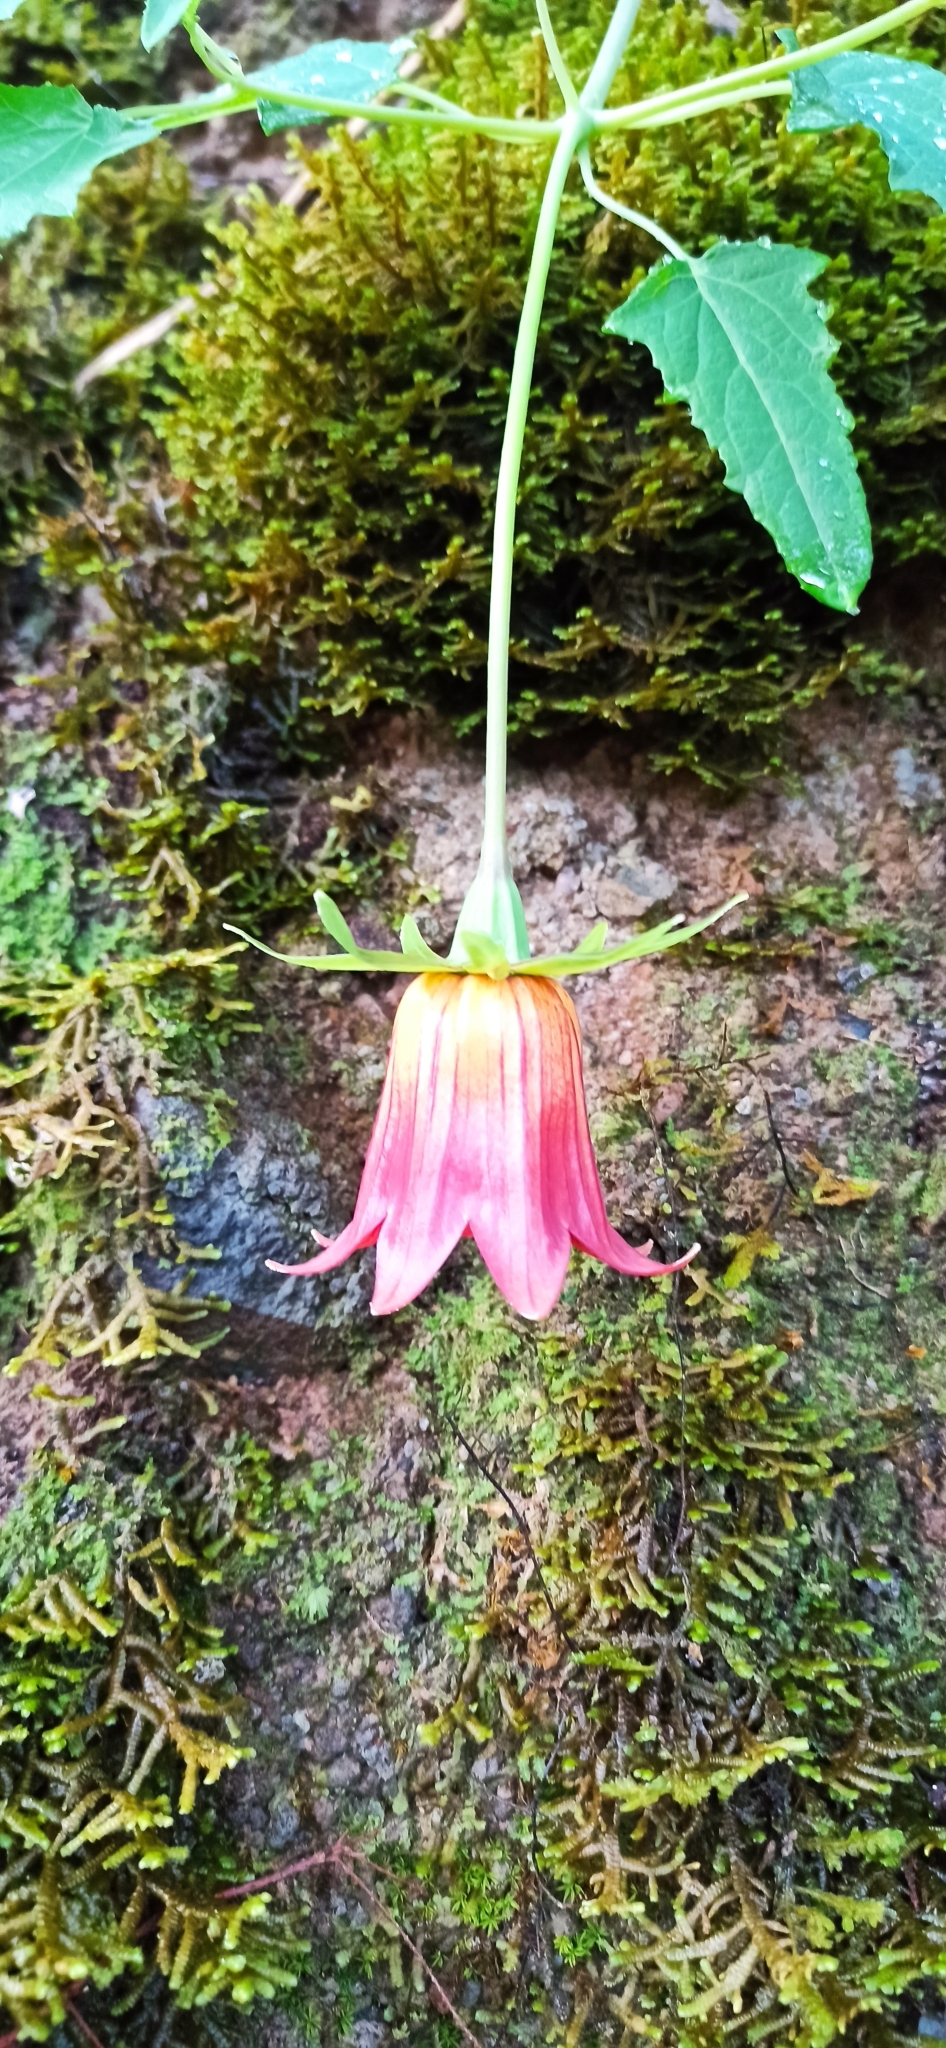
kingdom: Plantae
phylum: Tracheophyta
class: Magnoliopsida
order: Asterales
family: Campanulaceae
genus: Canarina
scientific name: Canarina canariensis
